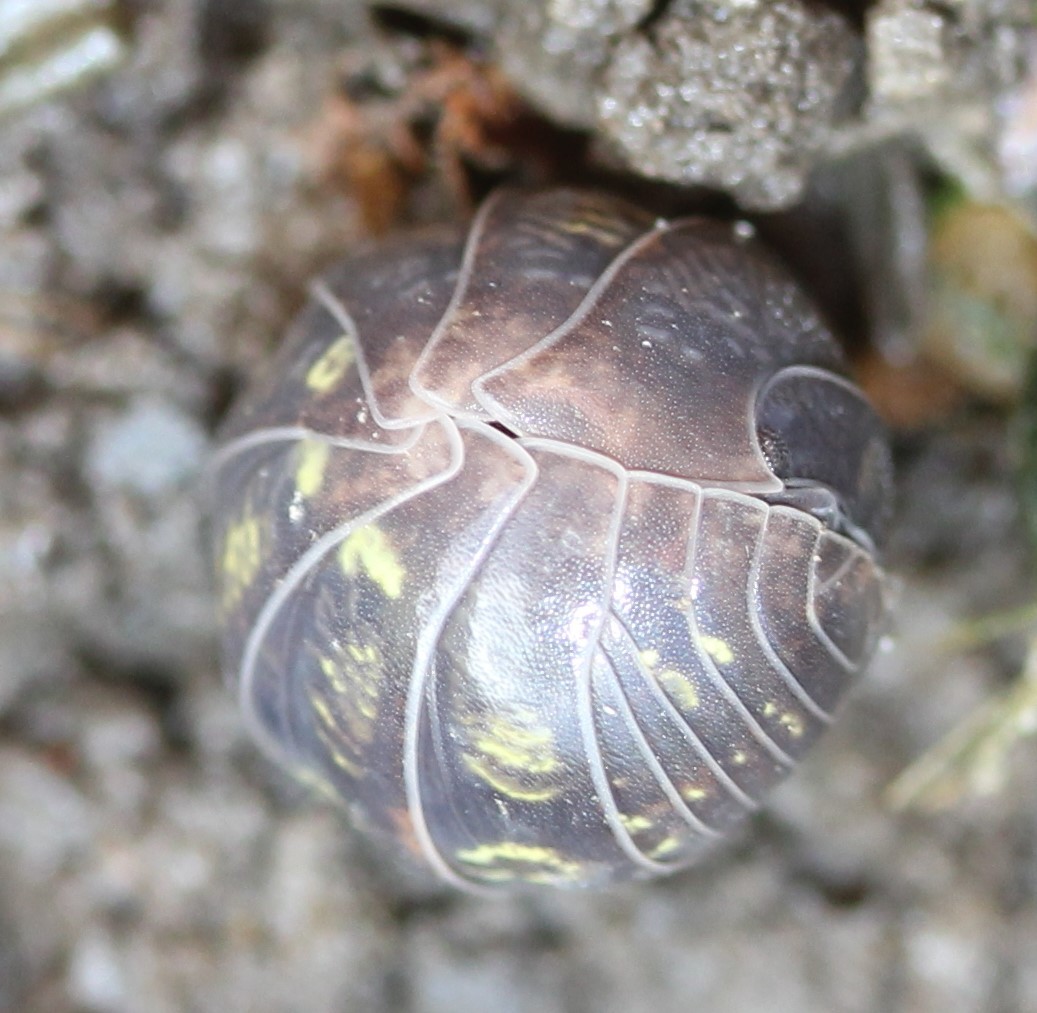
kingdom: Animalia
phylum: Arthropoda
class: Malacostraca
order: Isopoda
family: Armadillidiidae
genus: Armadillidium
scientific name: Armadillidium vulgare
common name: Common pill woodlouse
